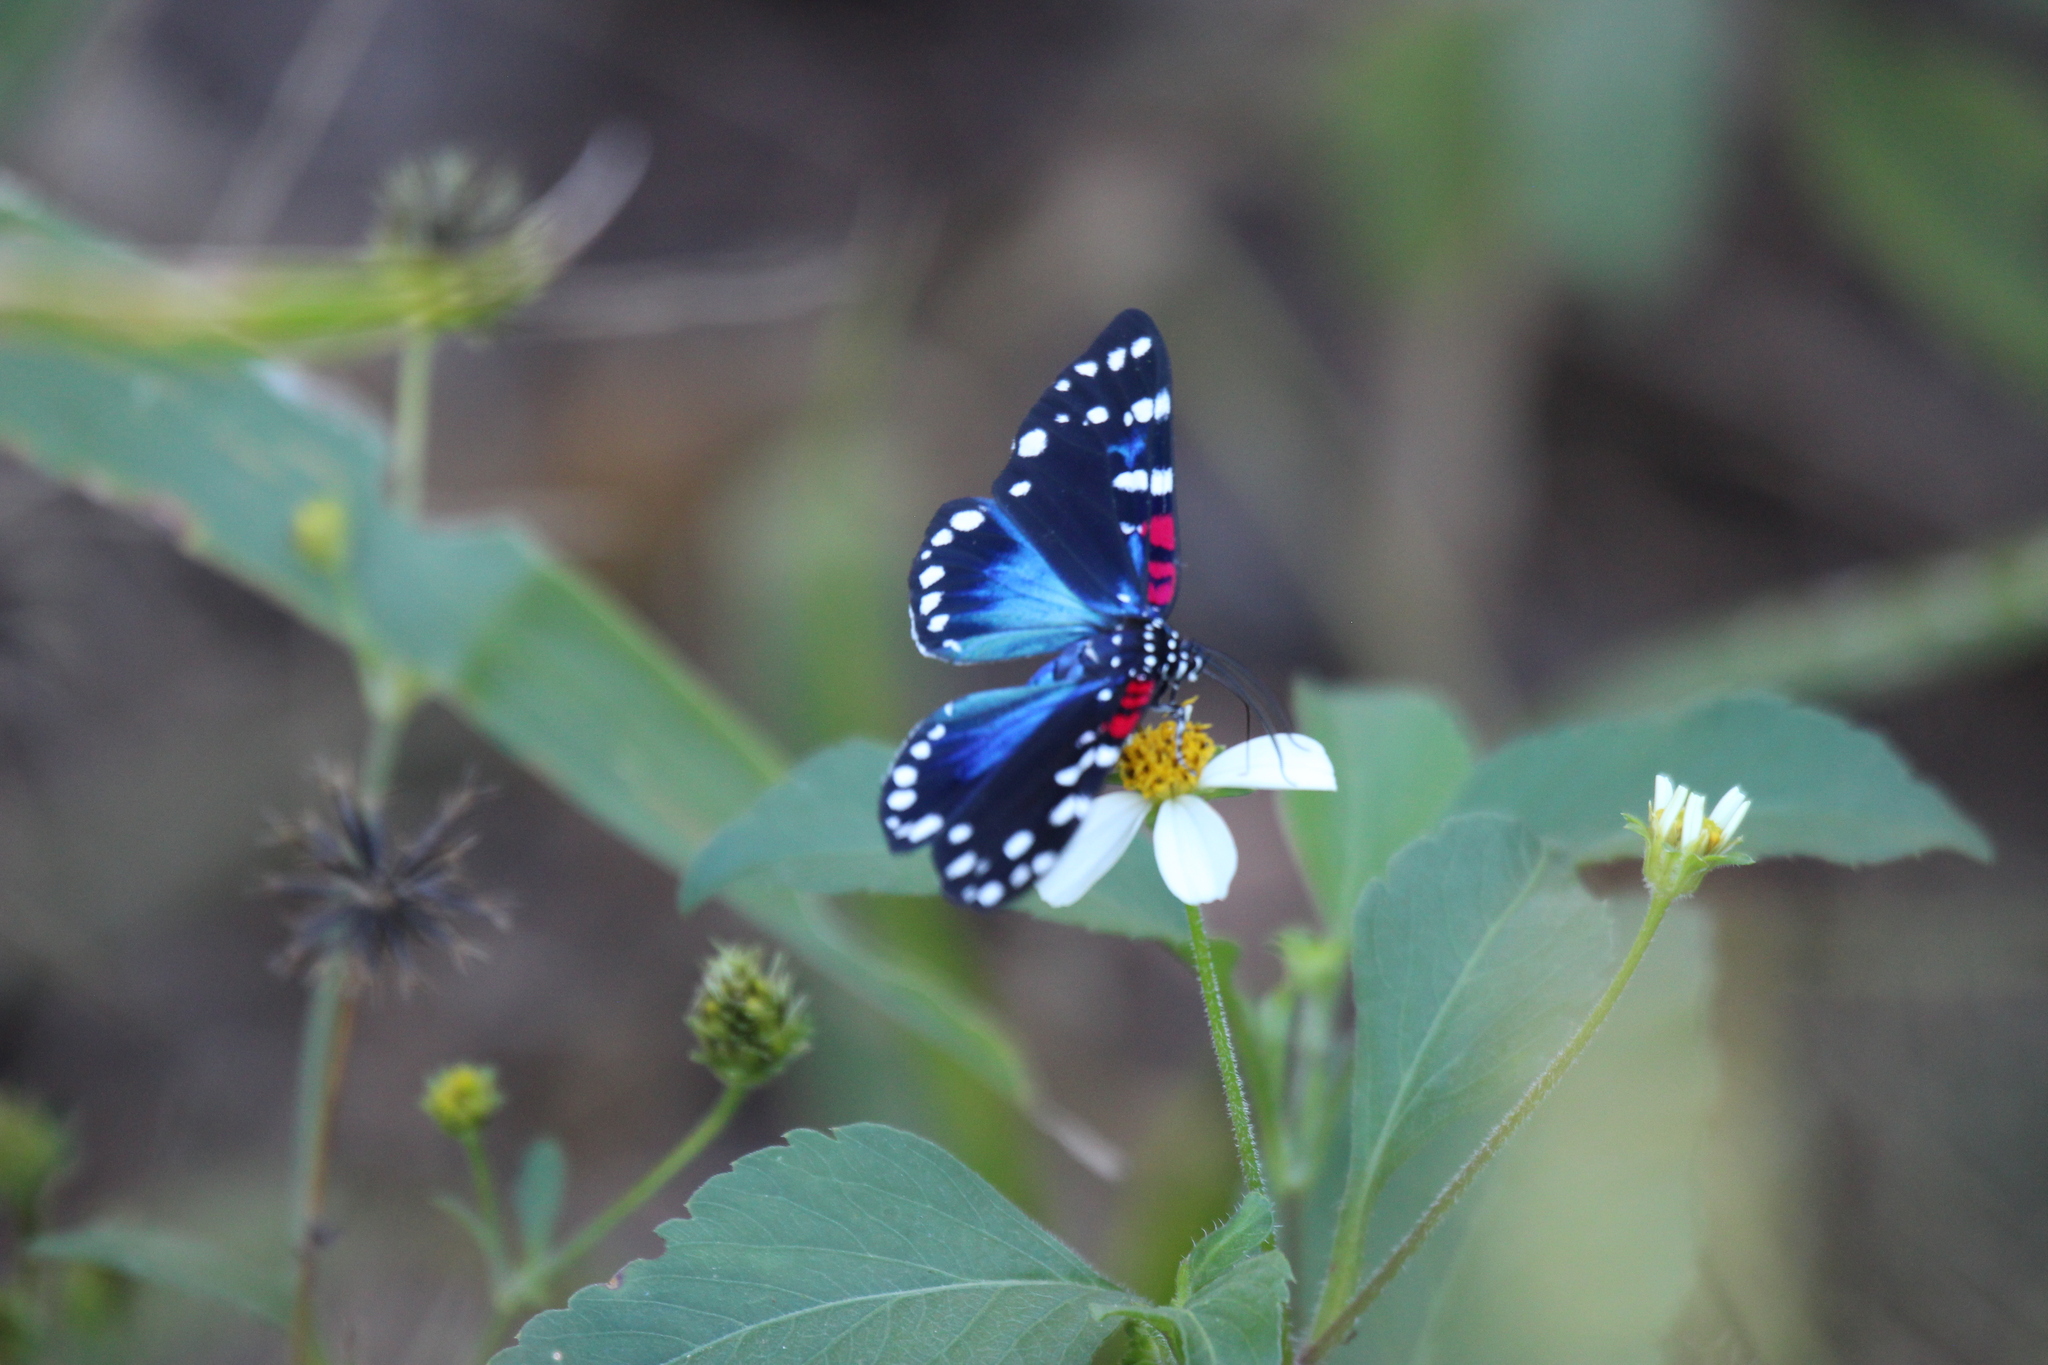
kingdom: Animalia
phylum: Arthropoda
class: Insecta
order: Lepidoptera
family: Erebidae
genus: Composia
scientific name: Composia fidelissima
